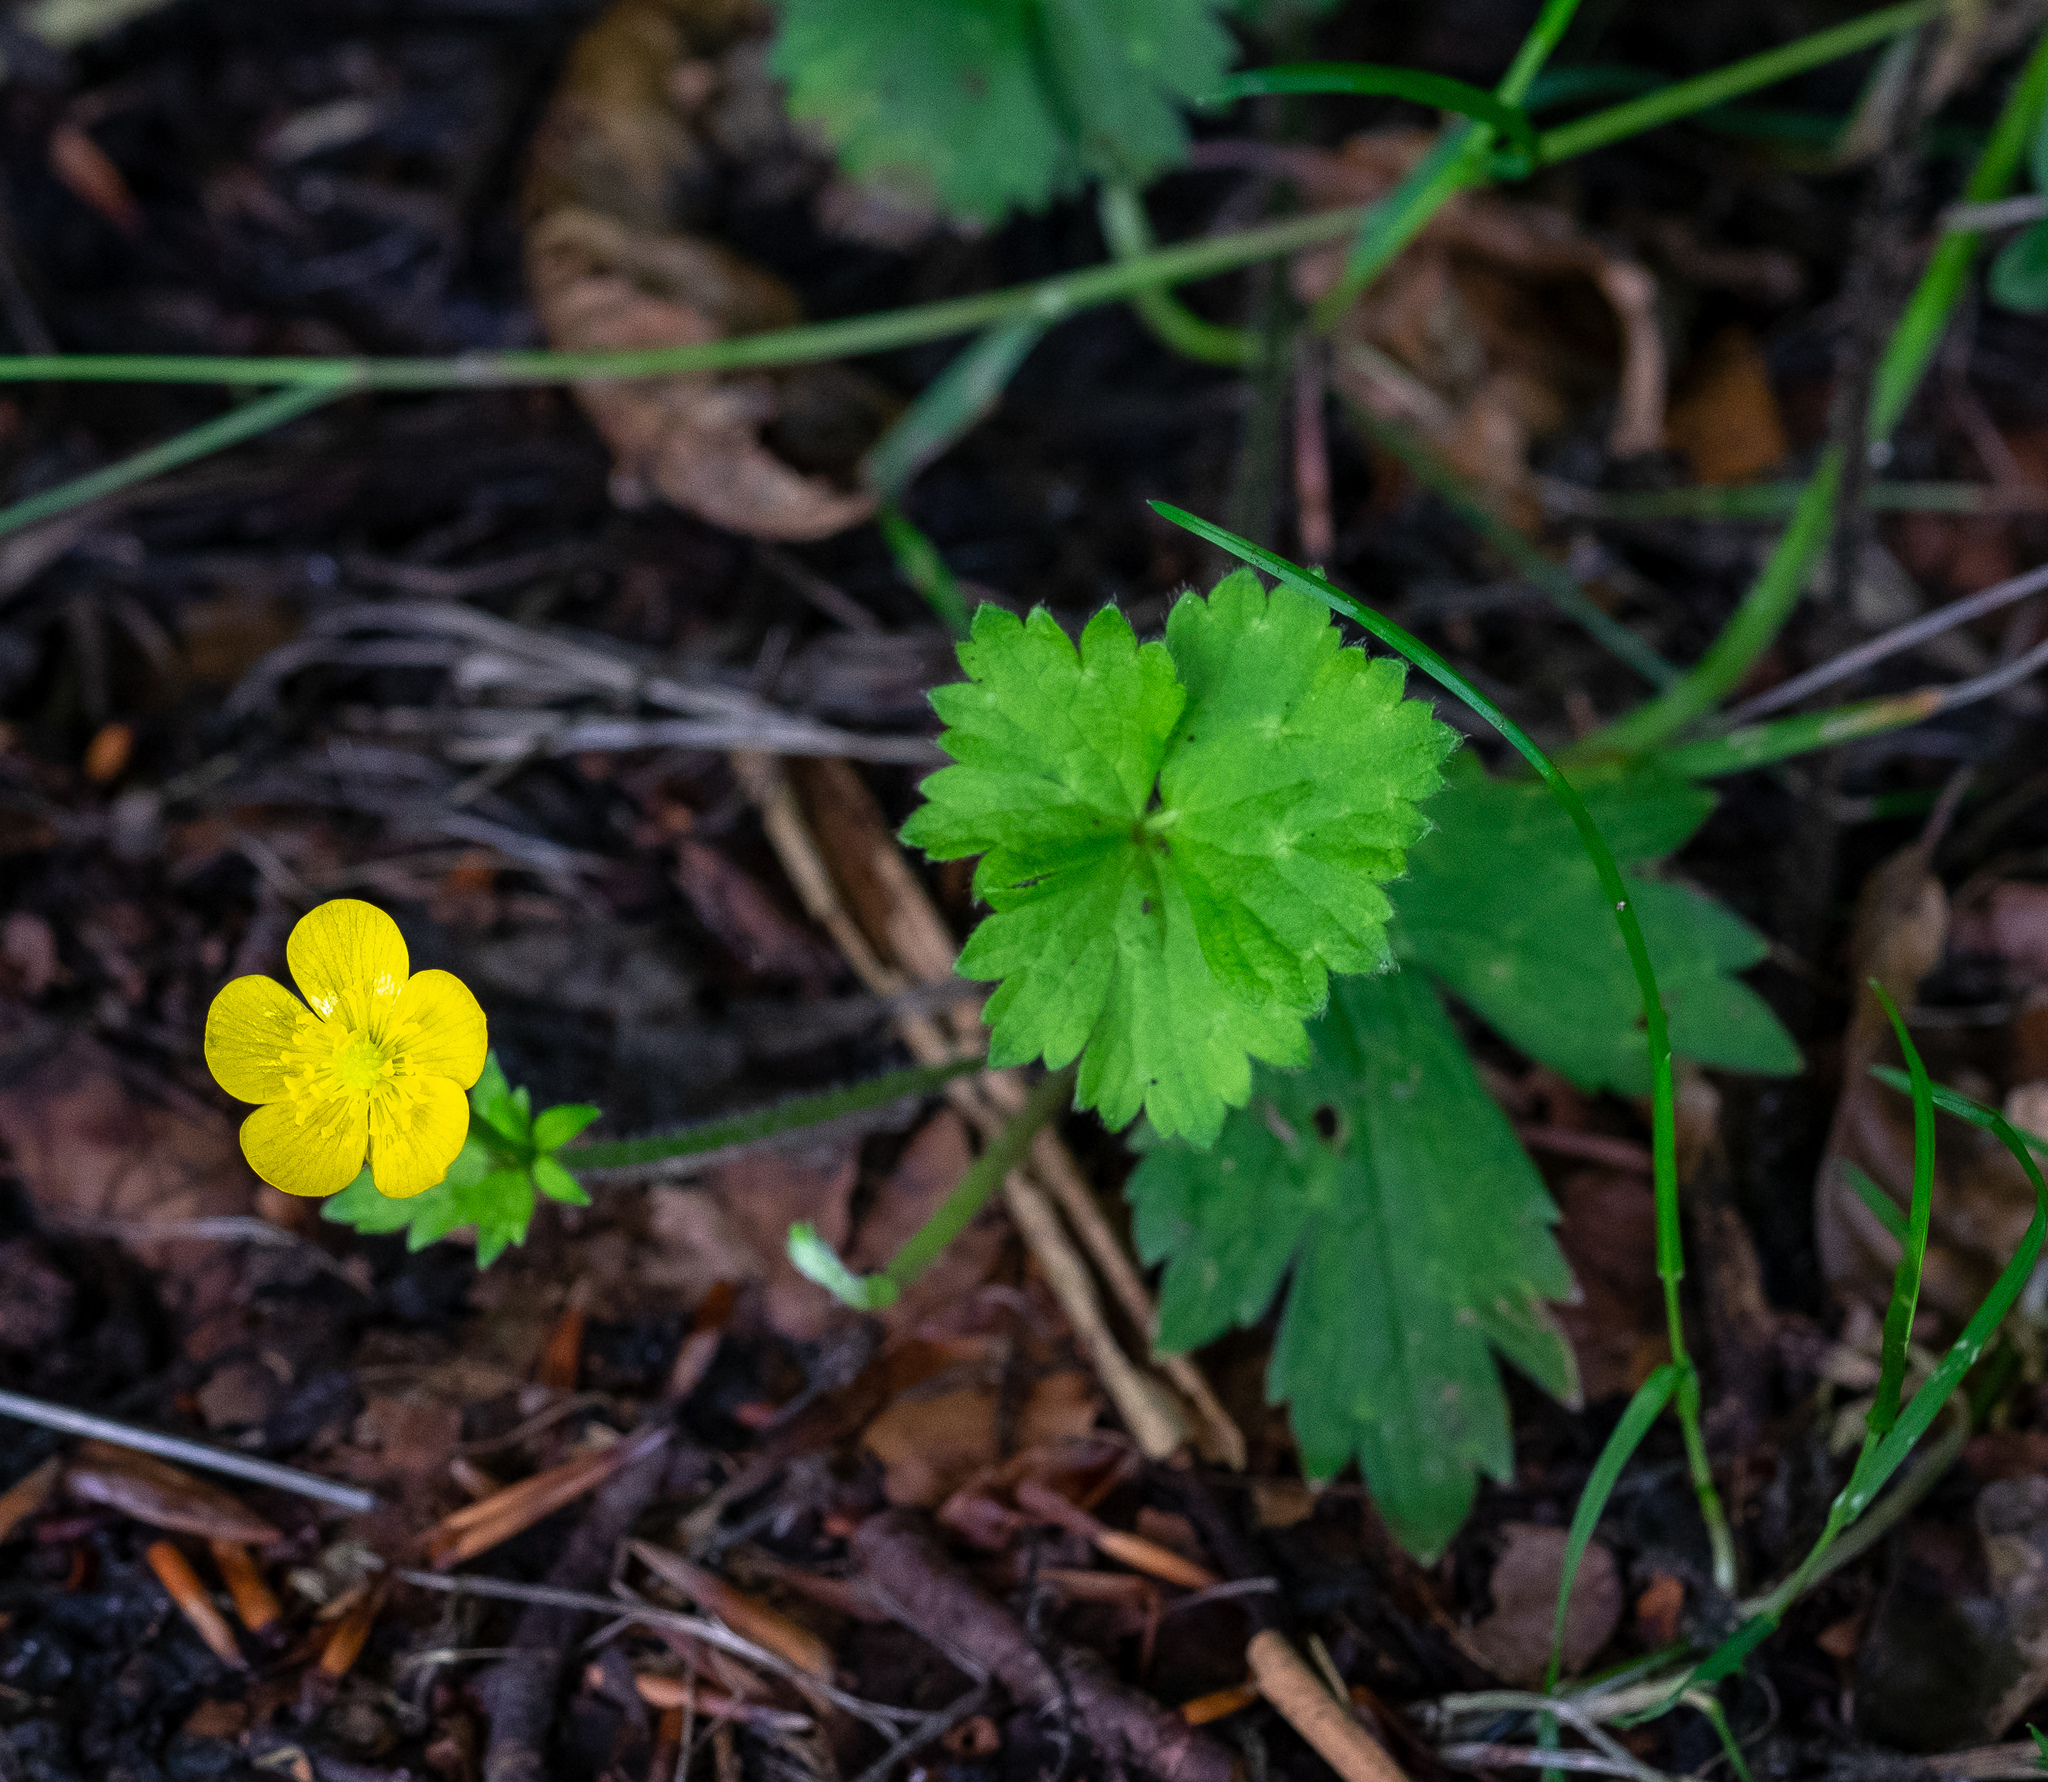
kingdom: Plantae
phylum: Tracheophyta
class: Magnoliopsida
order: Ranunculales
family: Ranunculaceae
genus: Ranunculus
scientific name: Ranunculus repens
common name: Creeping buttercup
